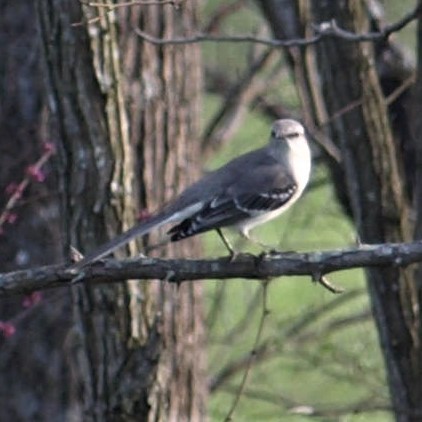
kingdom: Animalia
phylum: Chordata
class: Aves
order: Passeriformes
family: Mimidae
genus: Mimus
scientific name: Mimus polyglottos
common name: Northern mockingbird
